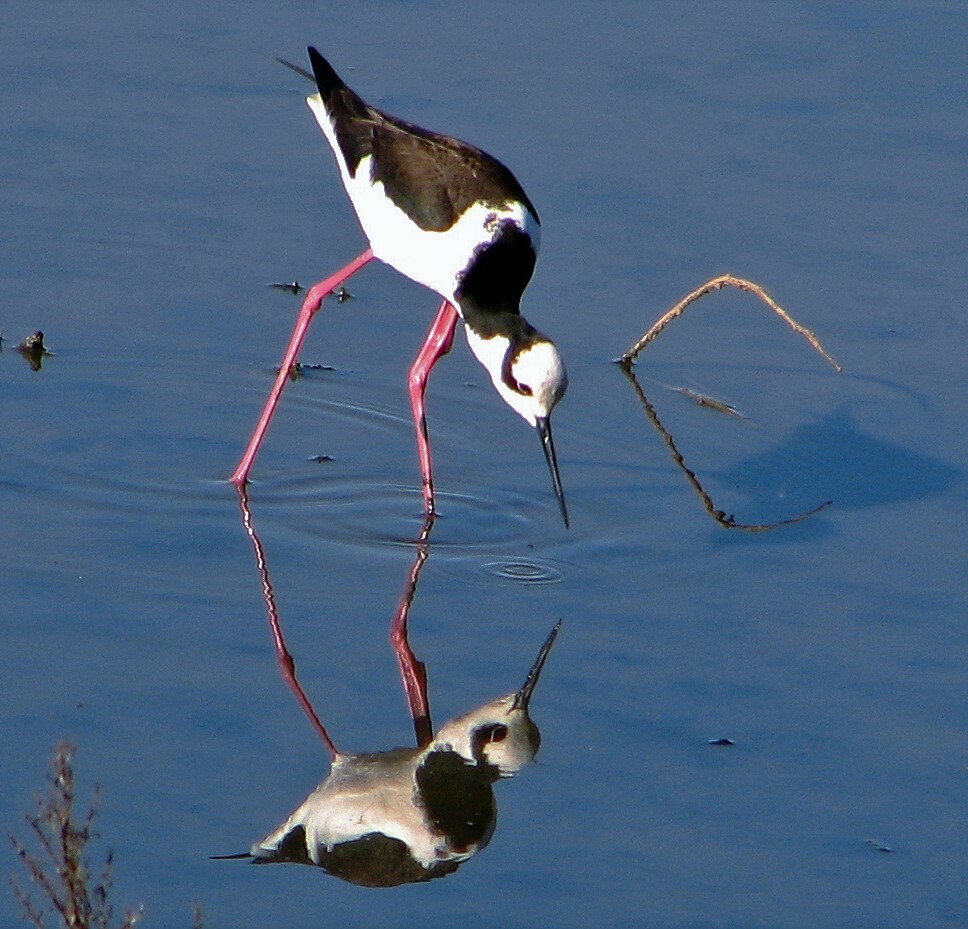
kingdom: Animalia
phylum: Chordata
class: Aves
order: Charadriiformes
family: Recurvirostridae
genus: Himantopus
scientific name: Himantopus mexicanus
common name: Black-necked stilt
